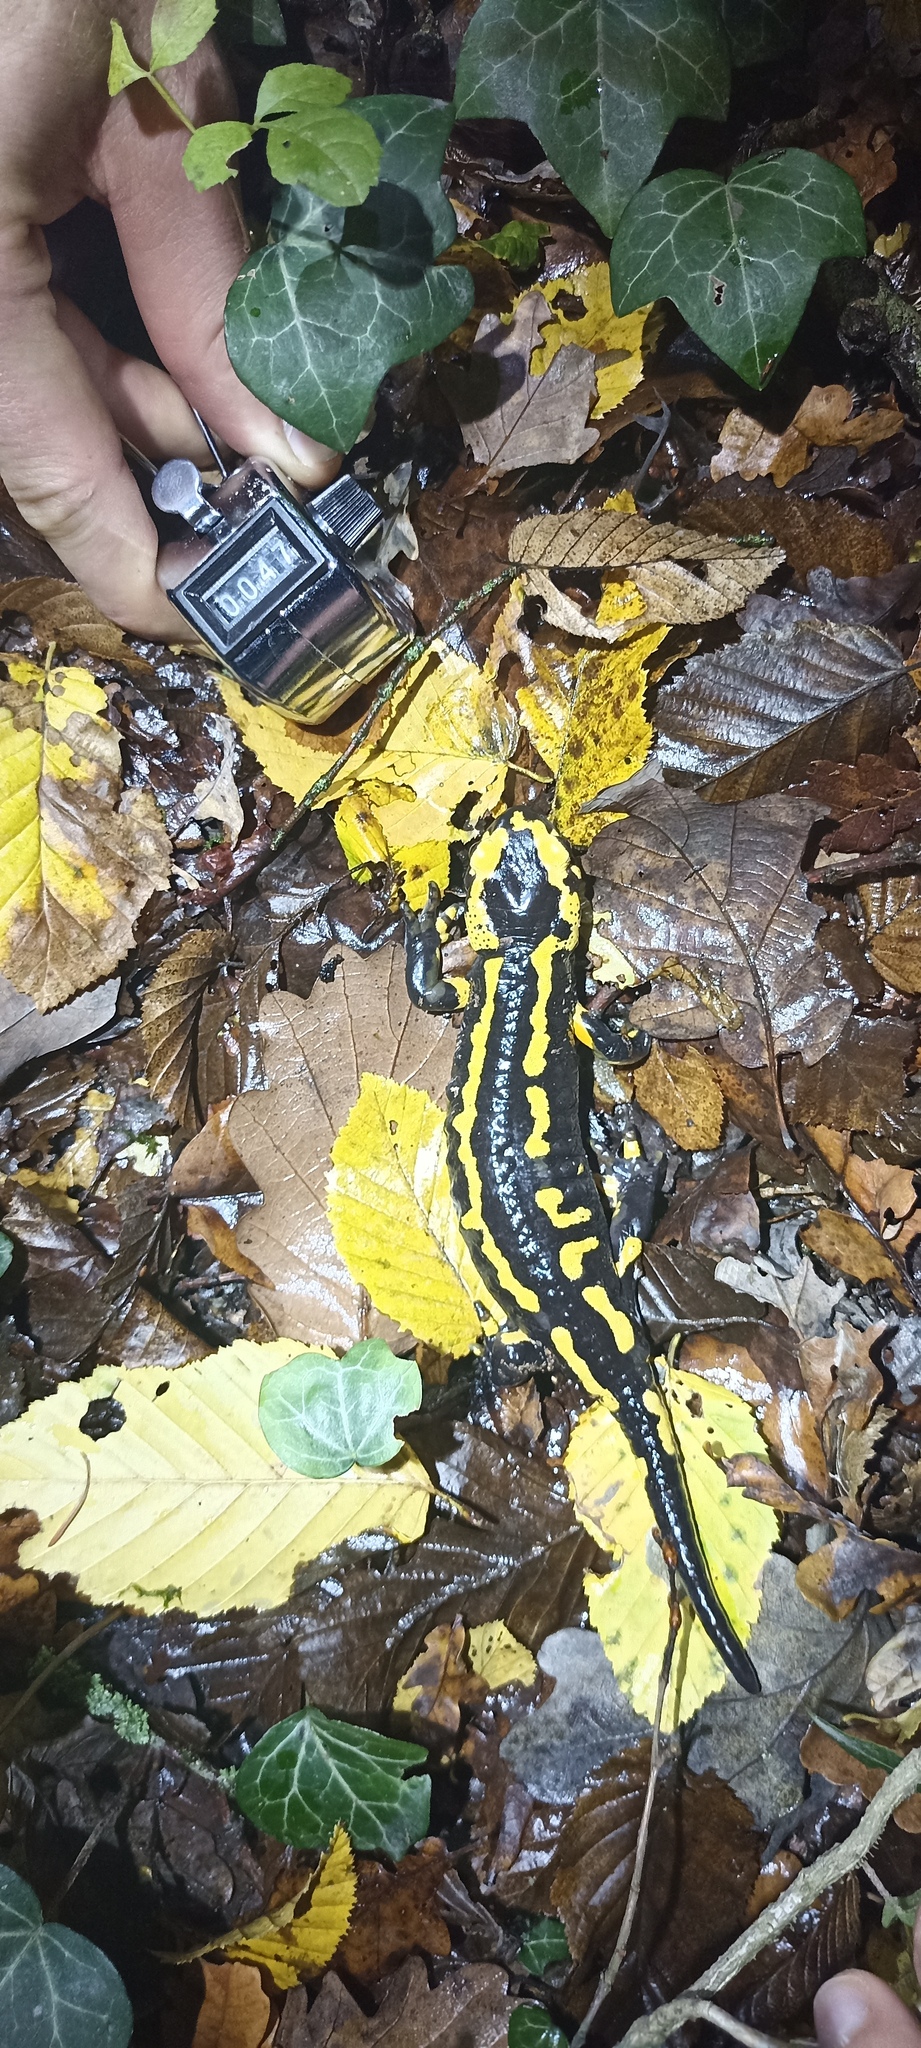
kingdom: Animalia
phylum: Chordata
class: Amphibia
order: Caudata
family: Salamandridae
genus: Salamandra
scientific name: Salamandra salamandra
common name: Fire salamander
